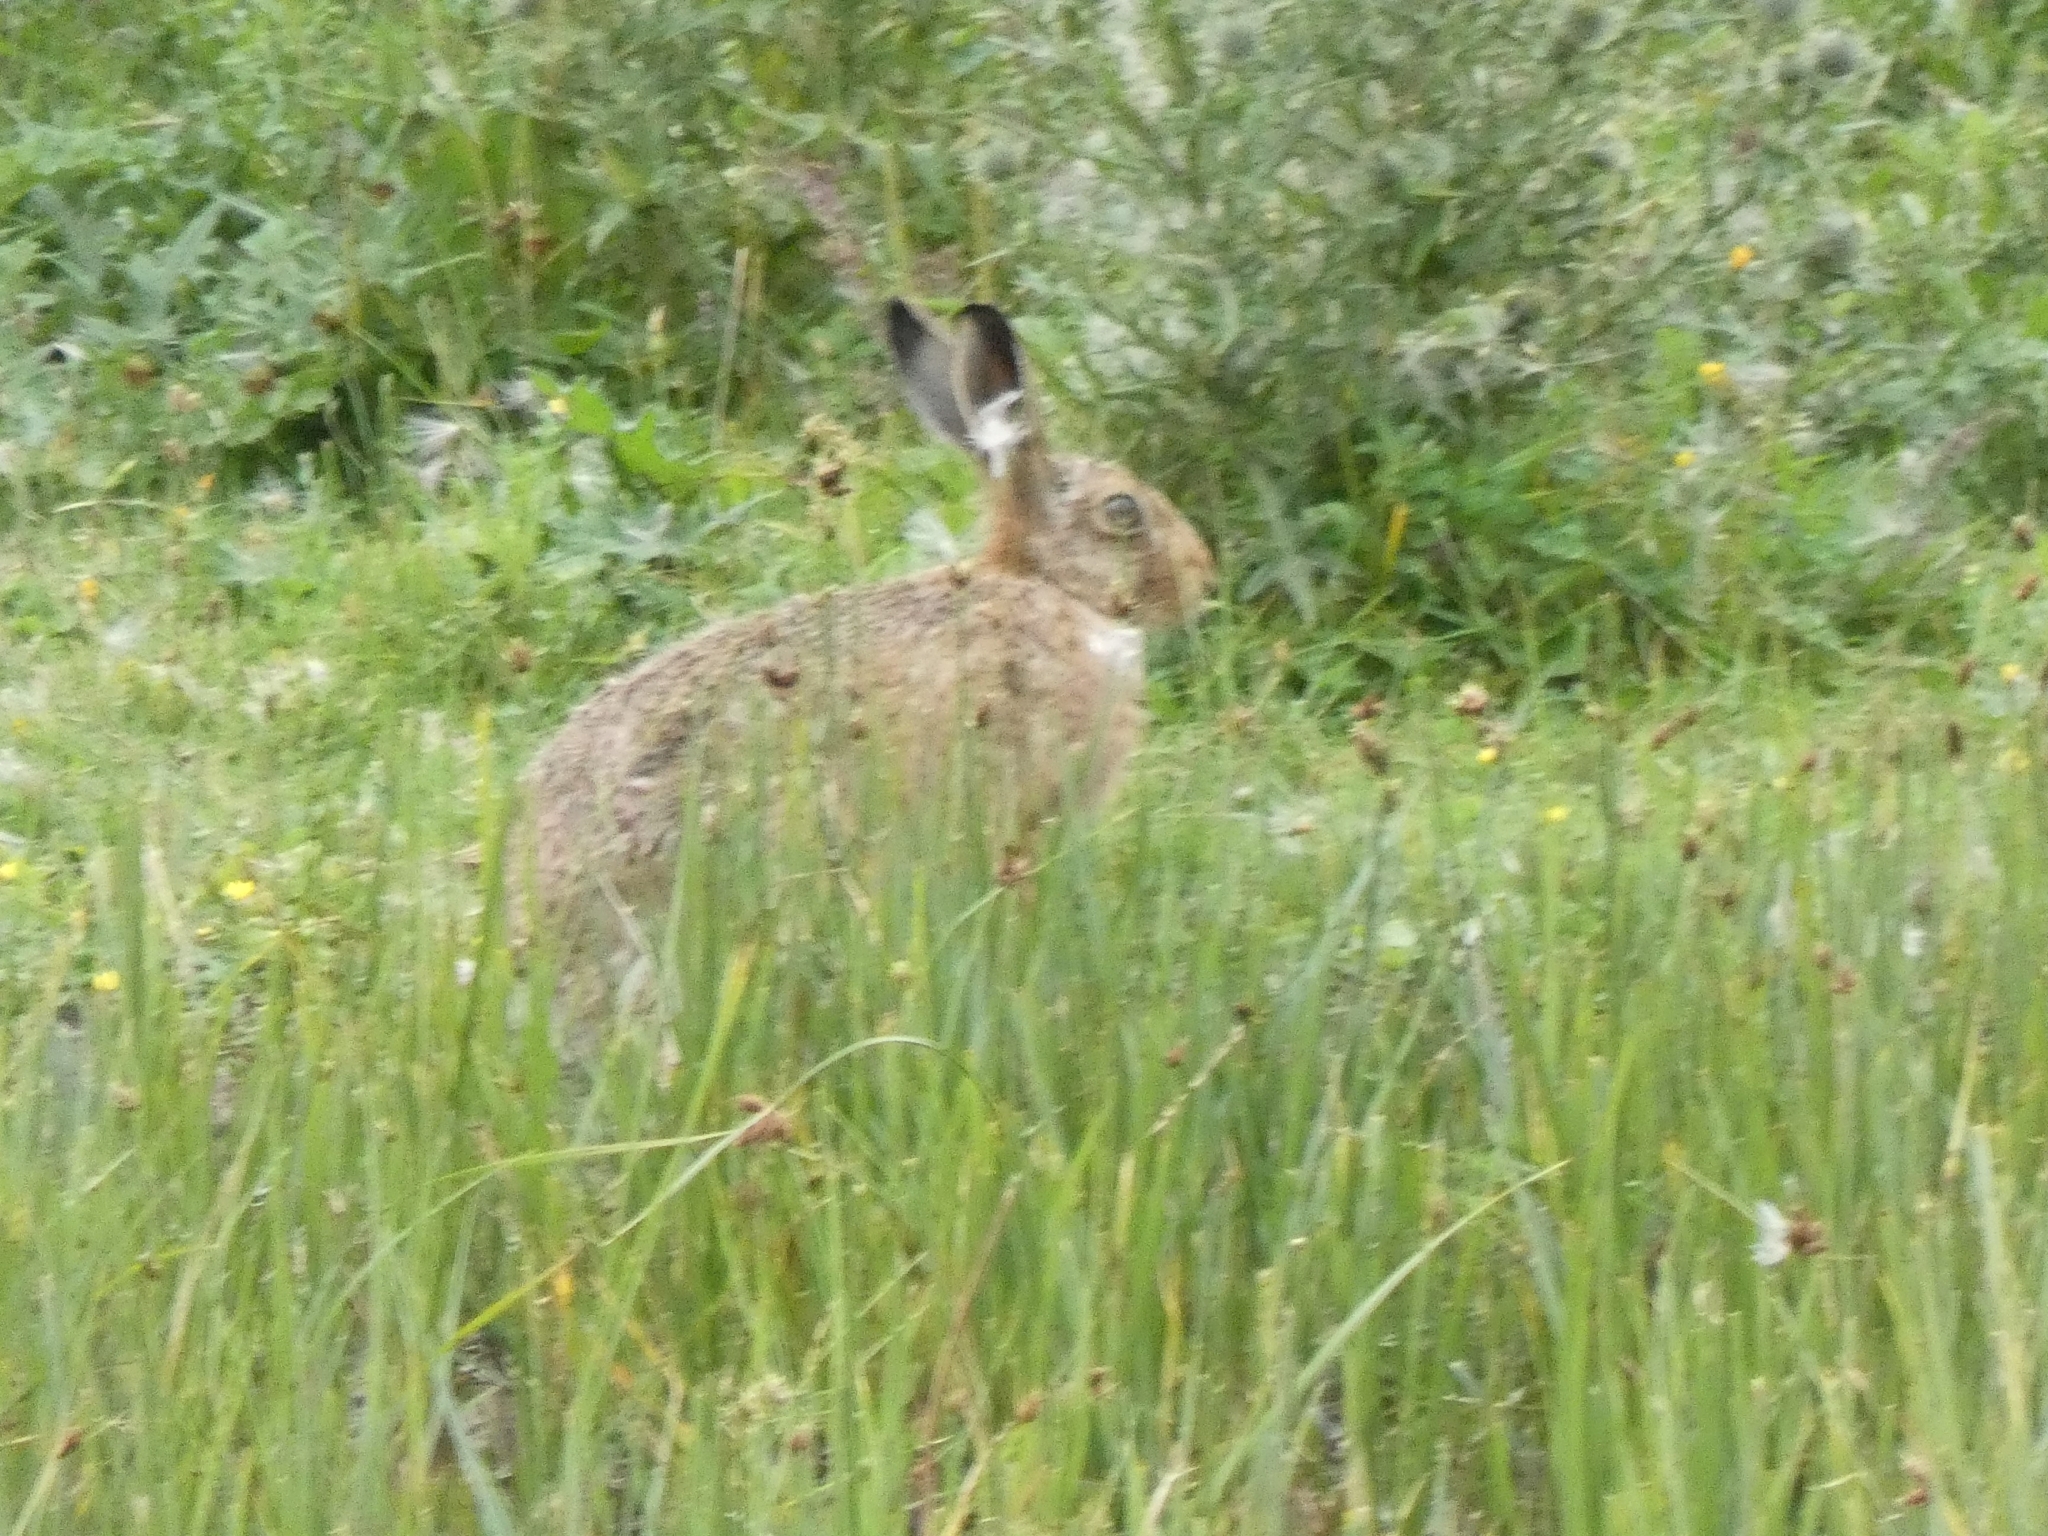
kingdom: Animalia
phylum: Chordata
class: Mammalia
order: Lagomorpha
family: Leporidae
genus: Lepus
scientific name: Lepus europaeus
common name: European hare
